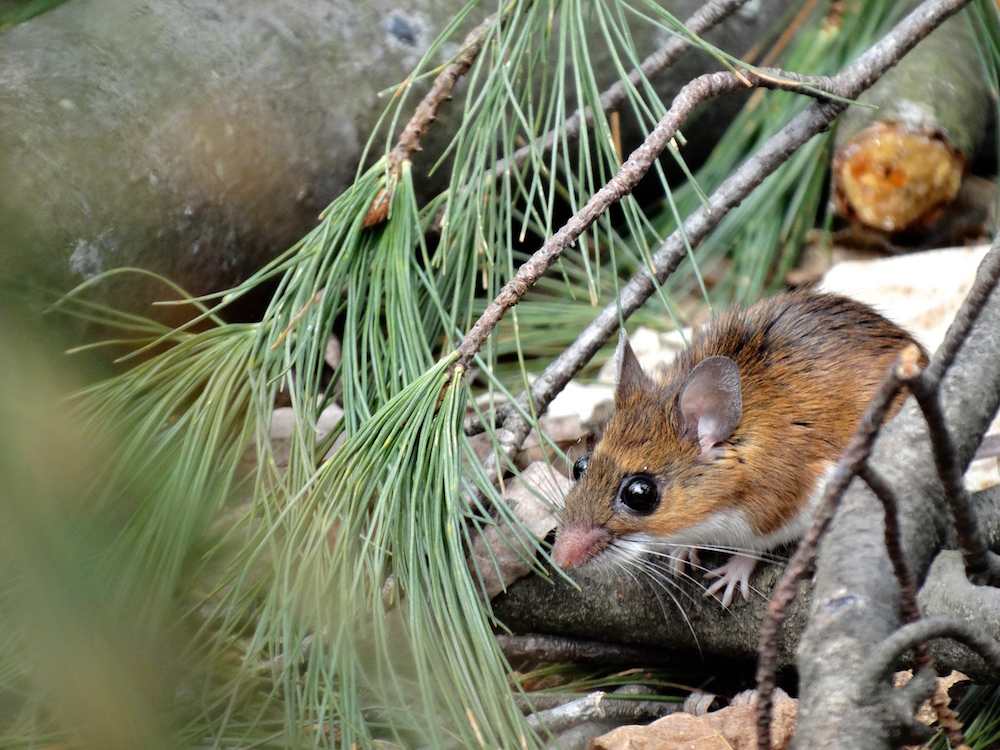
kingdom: Animalia
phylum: Chordata
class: Mammalia
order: Rodentia
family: Cricetidae
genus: Peromyscus
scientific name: Peromyscus
